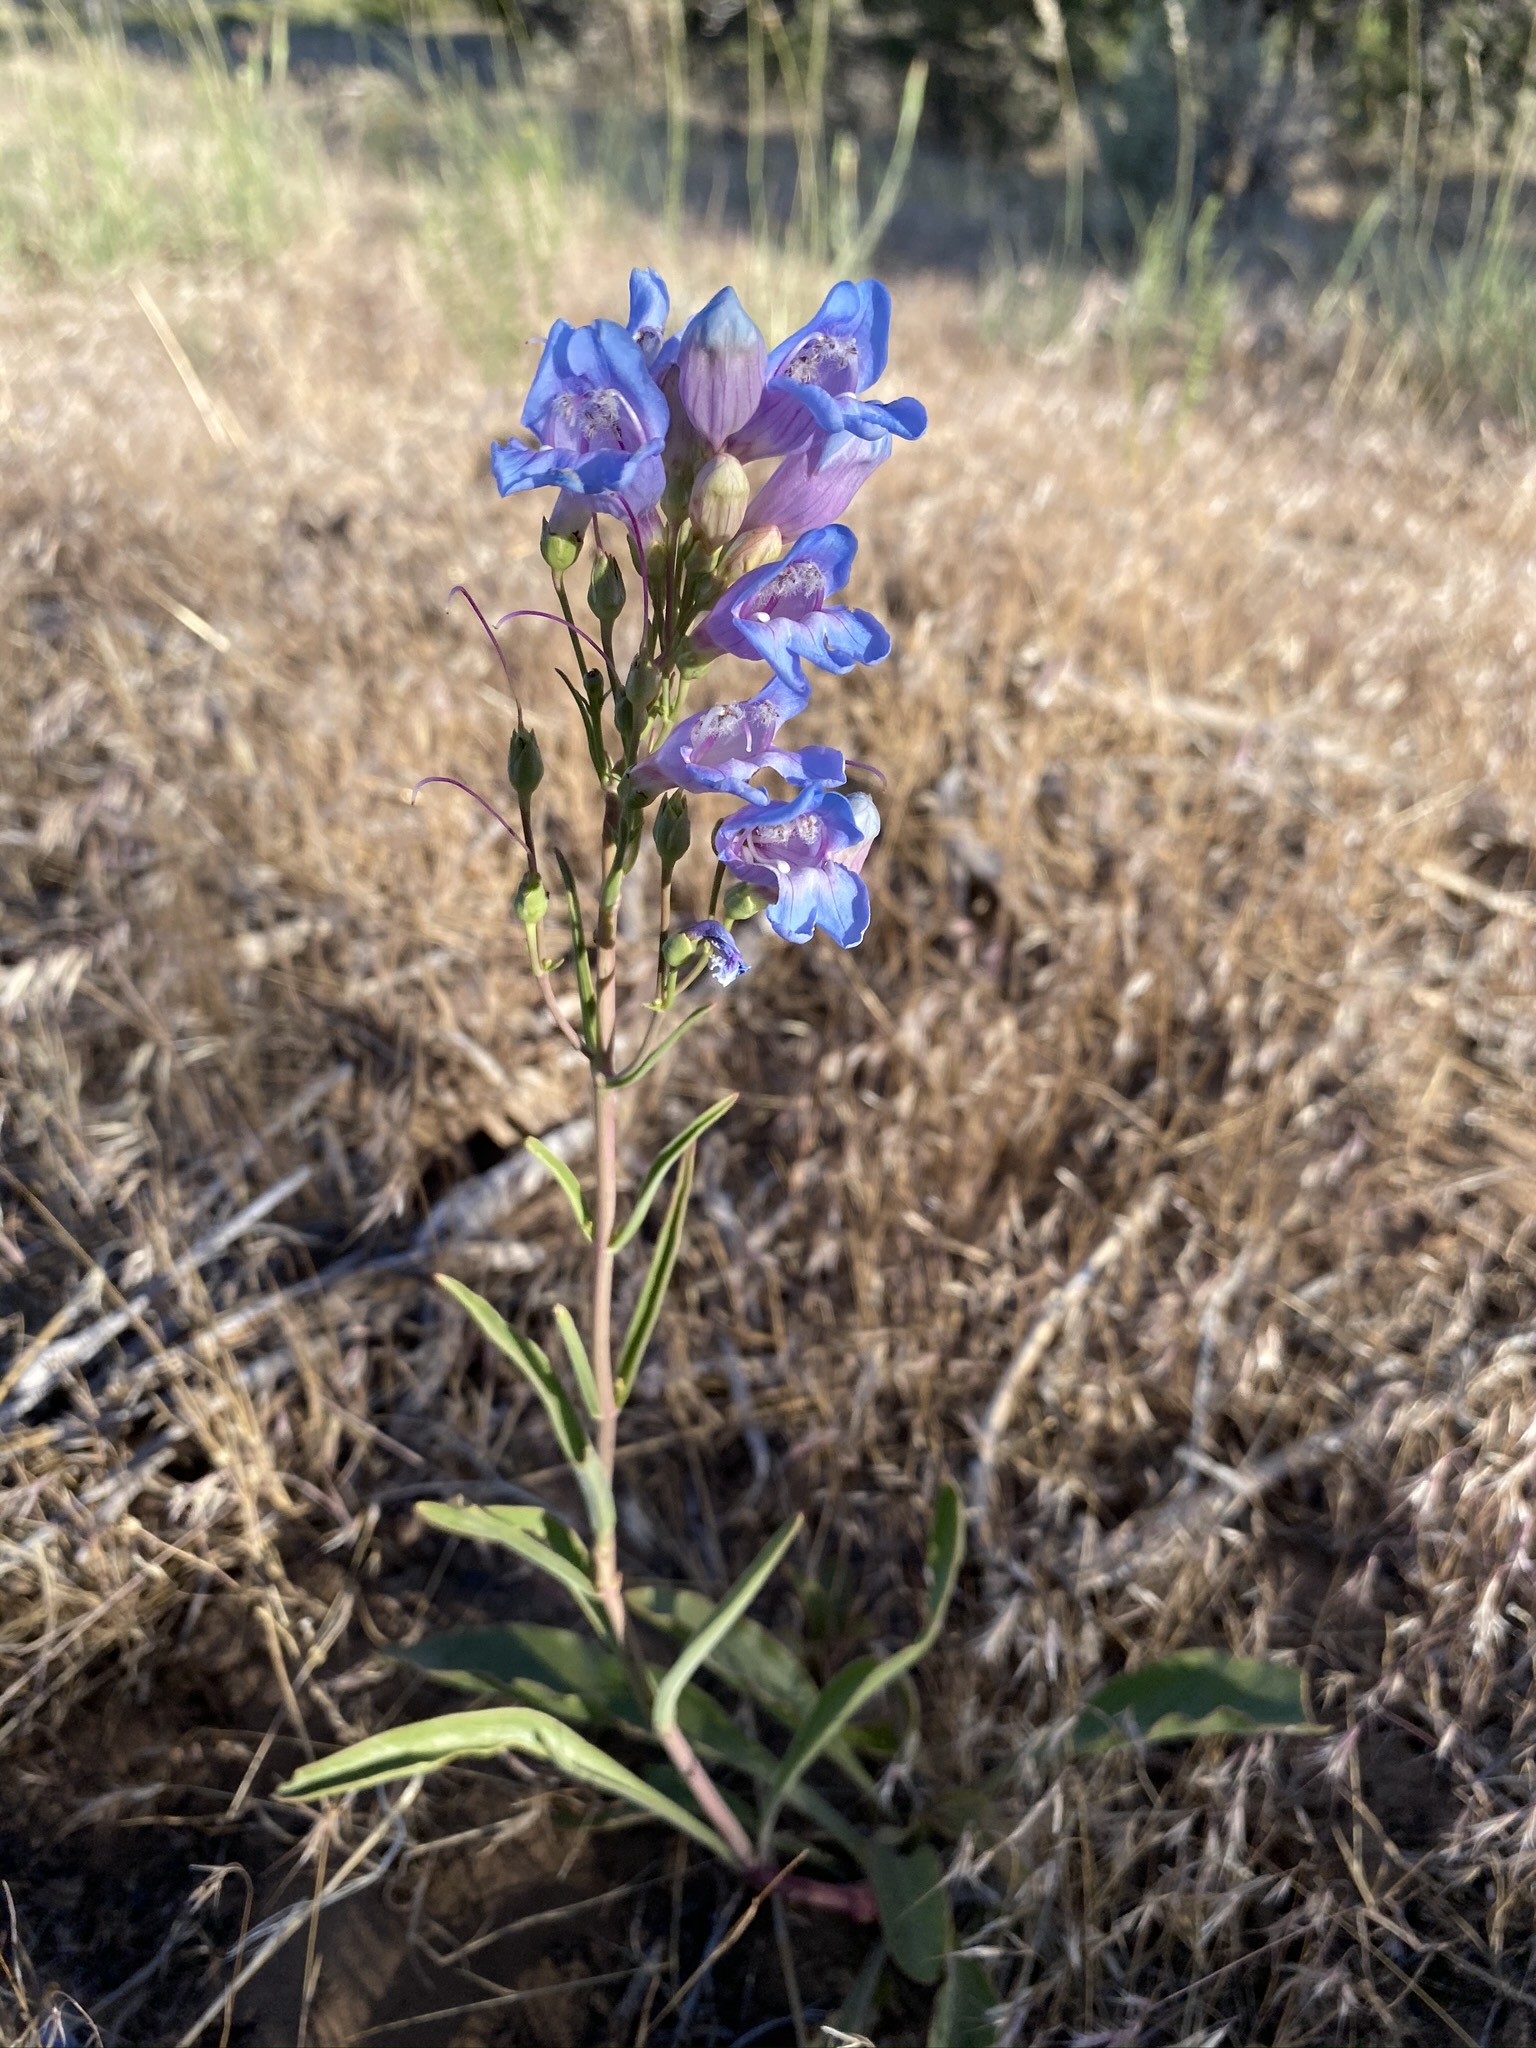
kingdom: Plantae
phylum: Tracheophyta
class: Magnoliopsida
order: Lamiales
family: Plantaginaceae
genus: Penstemon
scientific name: Penstemon comarrhenus
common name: Dusty penstemon
